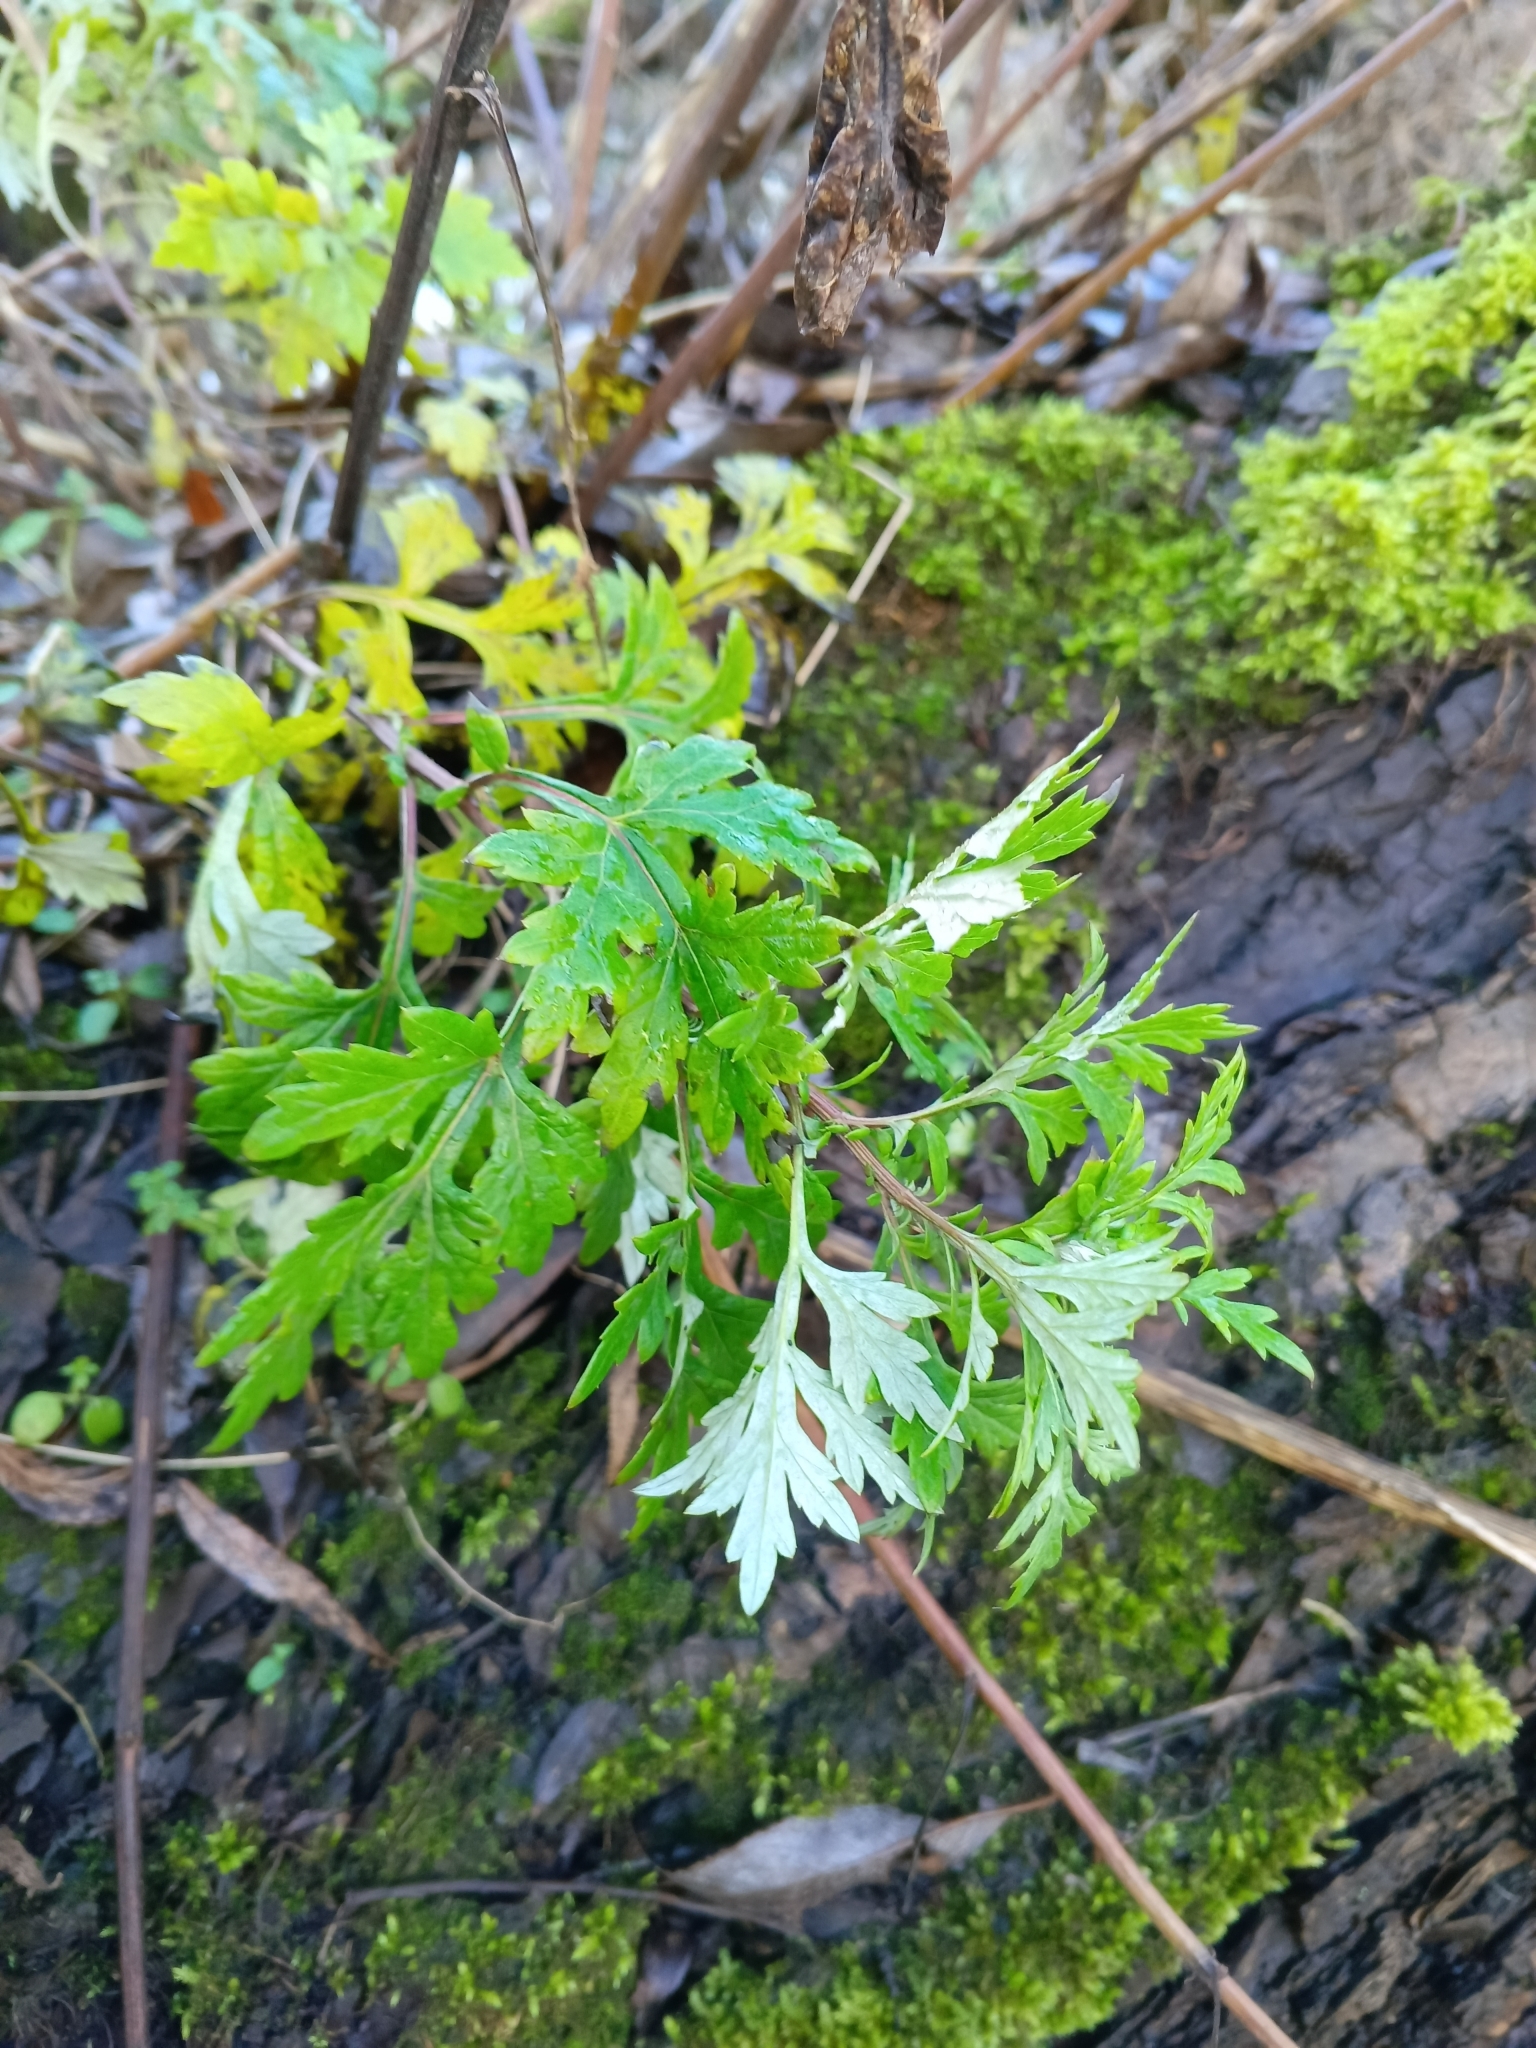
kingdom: Plantae
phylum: Tracheophyta
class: Magnoliopsida
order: Asterales
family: Asteraceae
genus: Artemisia
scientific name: Artemisia vulgaris
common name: Mugwort
